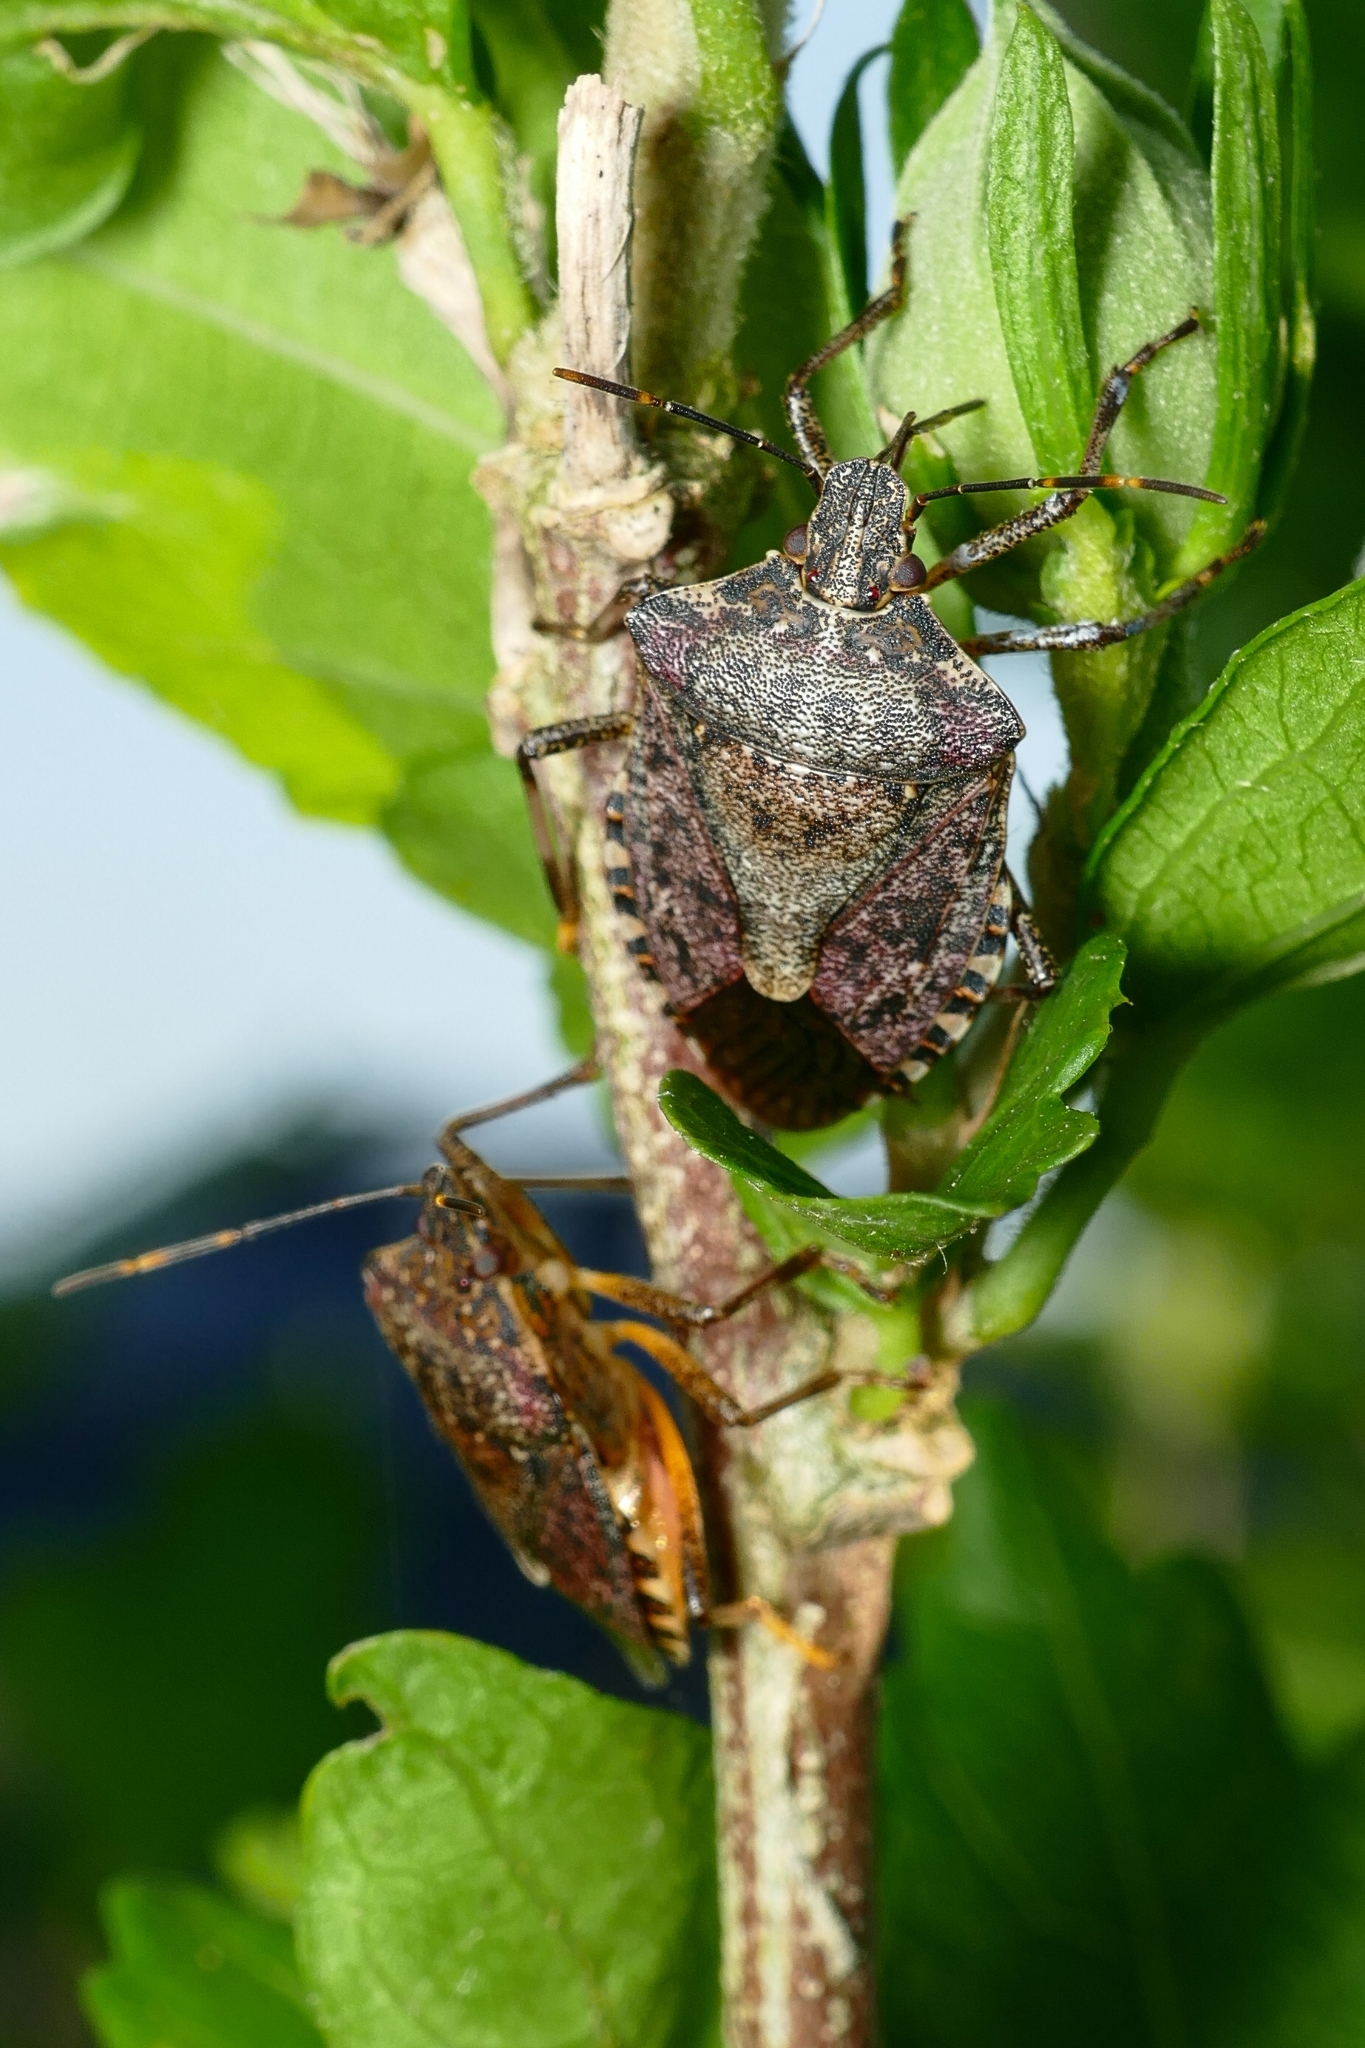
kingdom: Animalia
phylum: Arthropoda
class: Insecta
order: Hemiptera
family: Pentatomidae
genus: Halyomorpha
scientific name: Halyomorpha halys
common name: Brown marmorated stink bug
